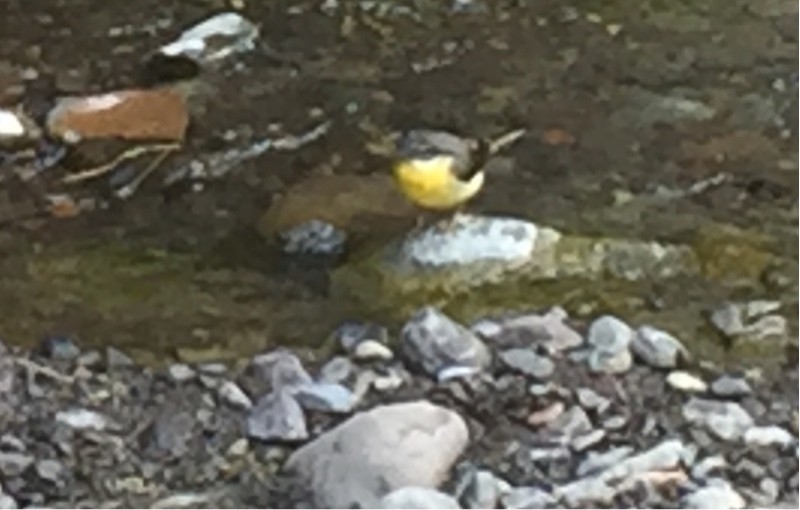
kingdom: Animalia
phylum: Chordata
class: Aves
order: Passeriformes
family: Motacillidae
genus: Motacilla
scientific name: Motacilla cinerea
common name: Grey wagtail
